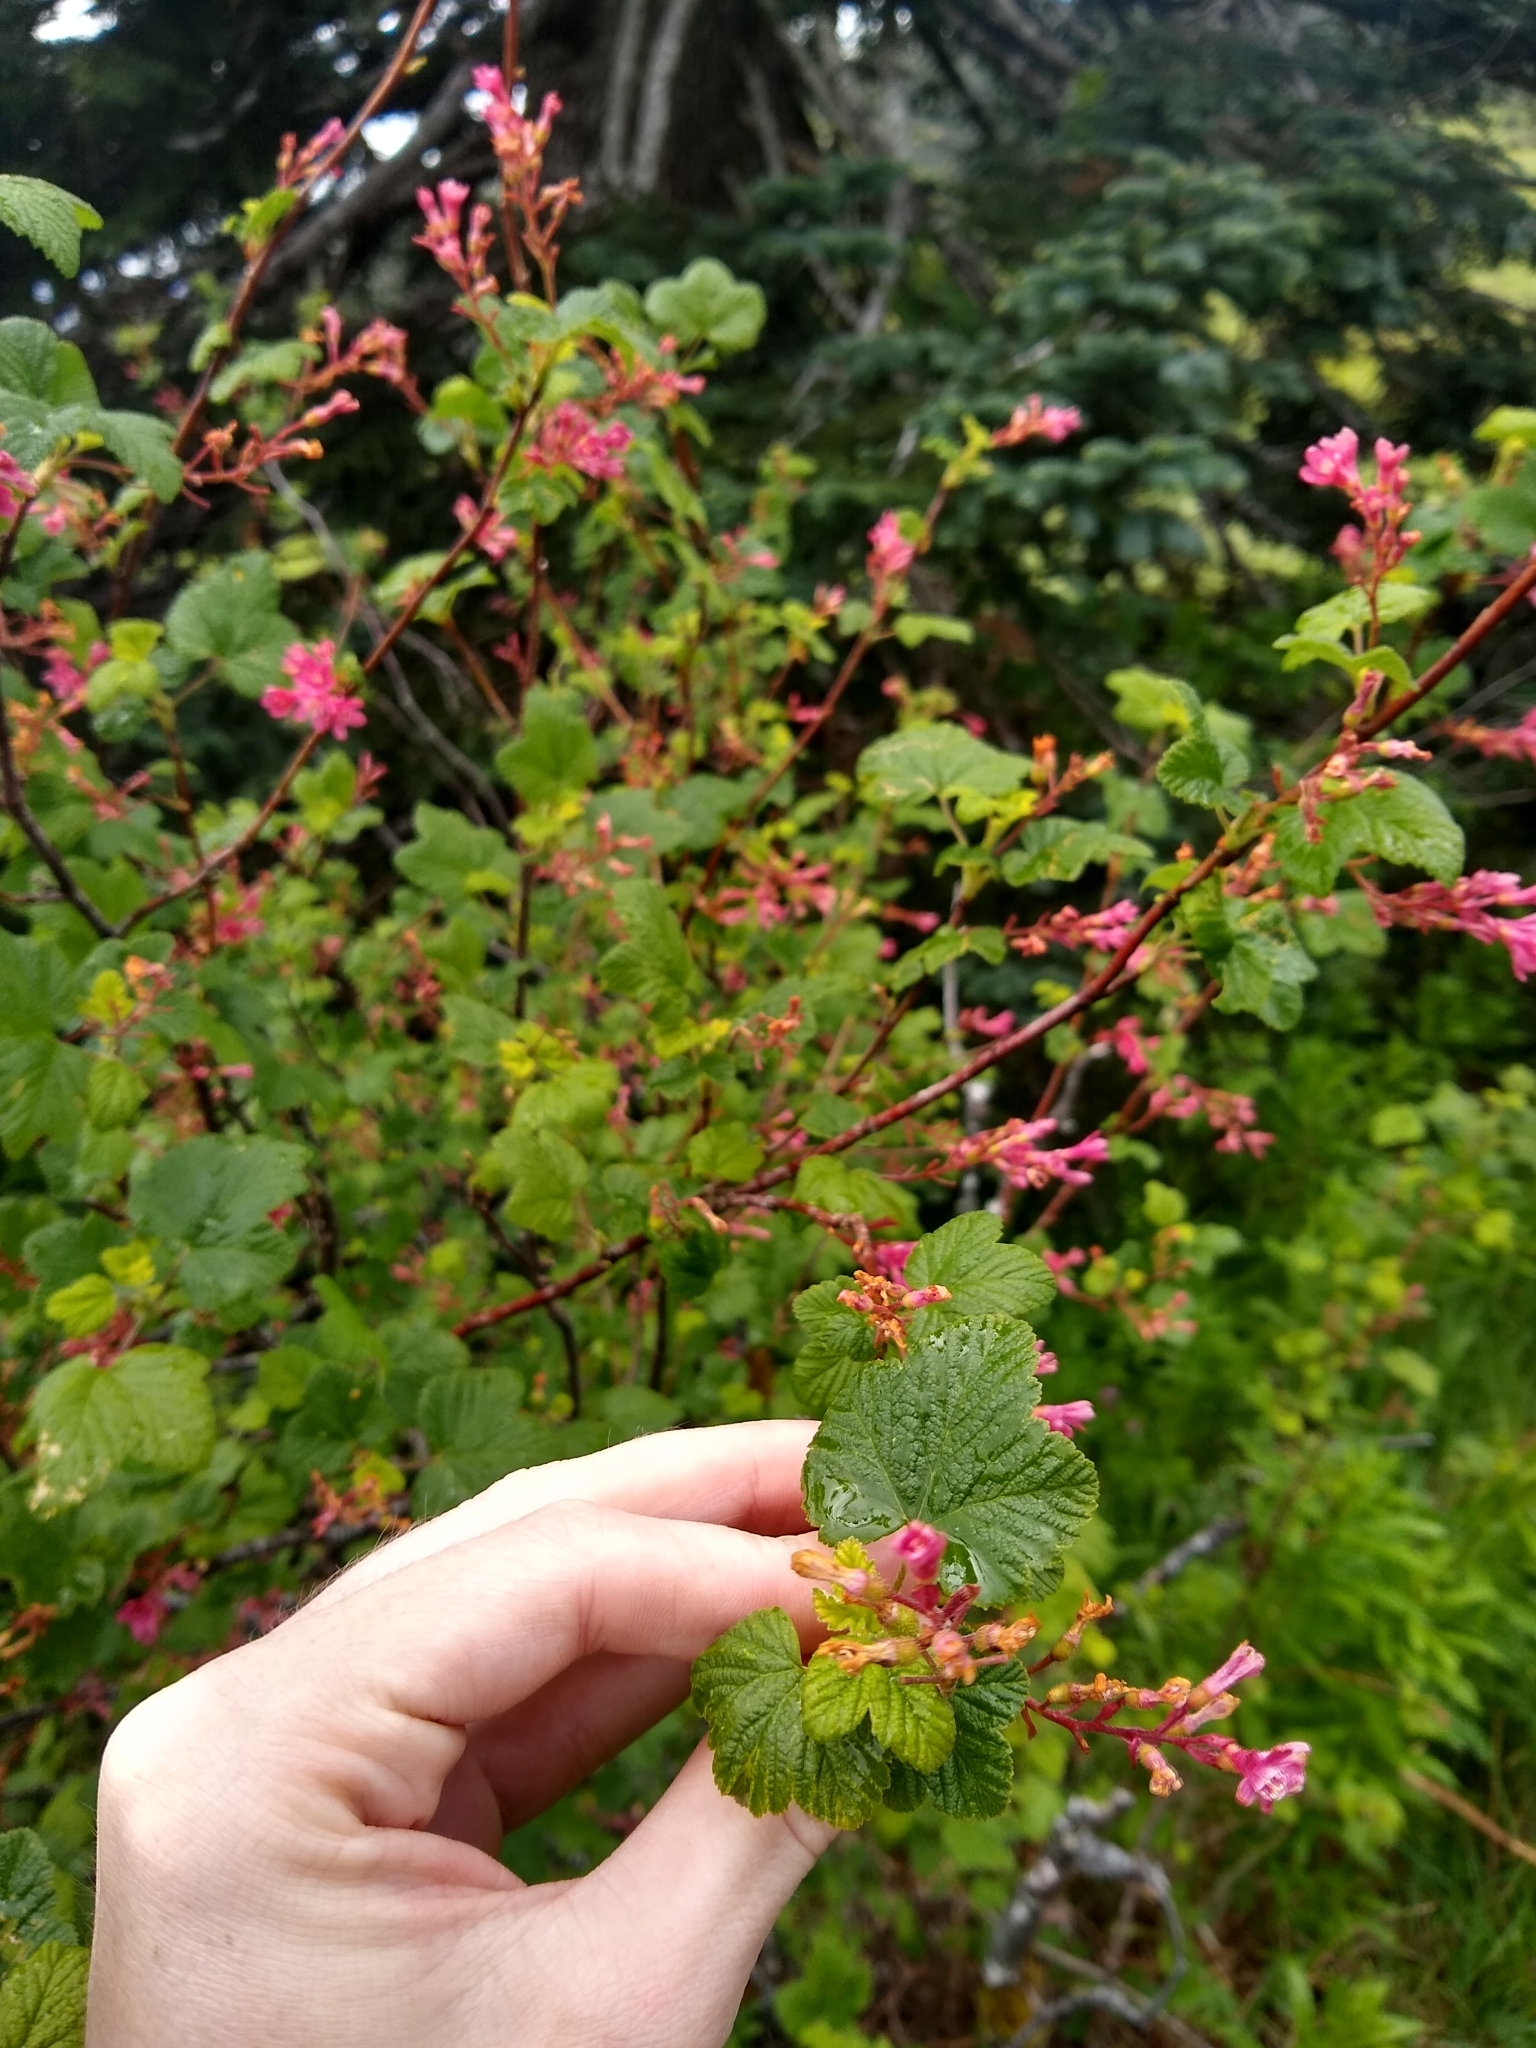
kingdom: Plantae
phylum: Tracheophyta
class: Magnoliopsida
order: Saxifragales
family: Grossulariaceae
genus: Ribes
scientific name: Ribes sanguineum
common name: Flowering currant
